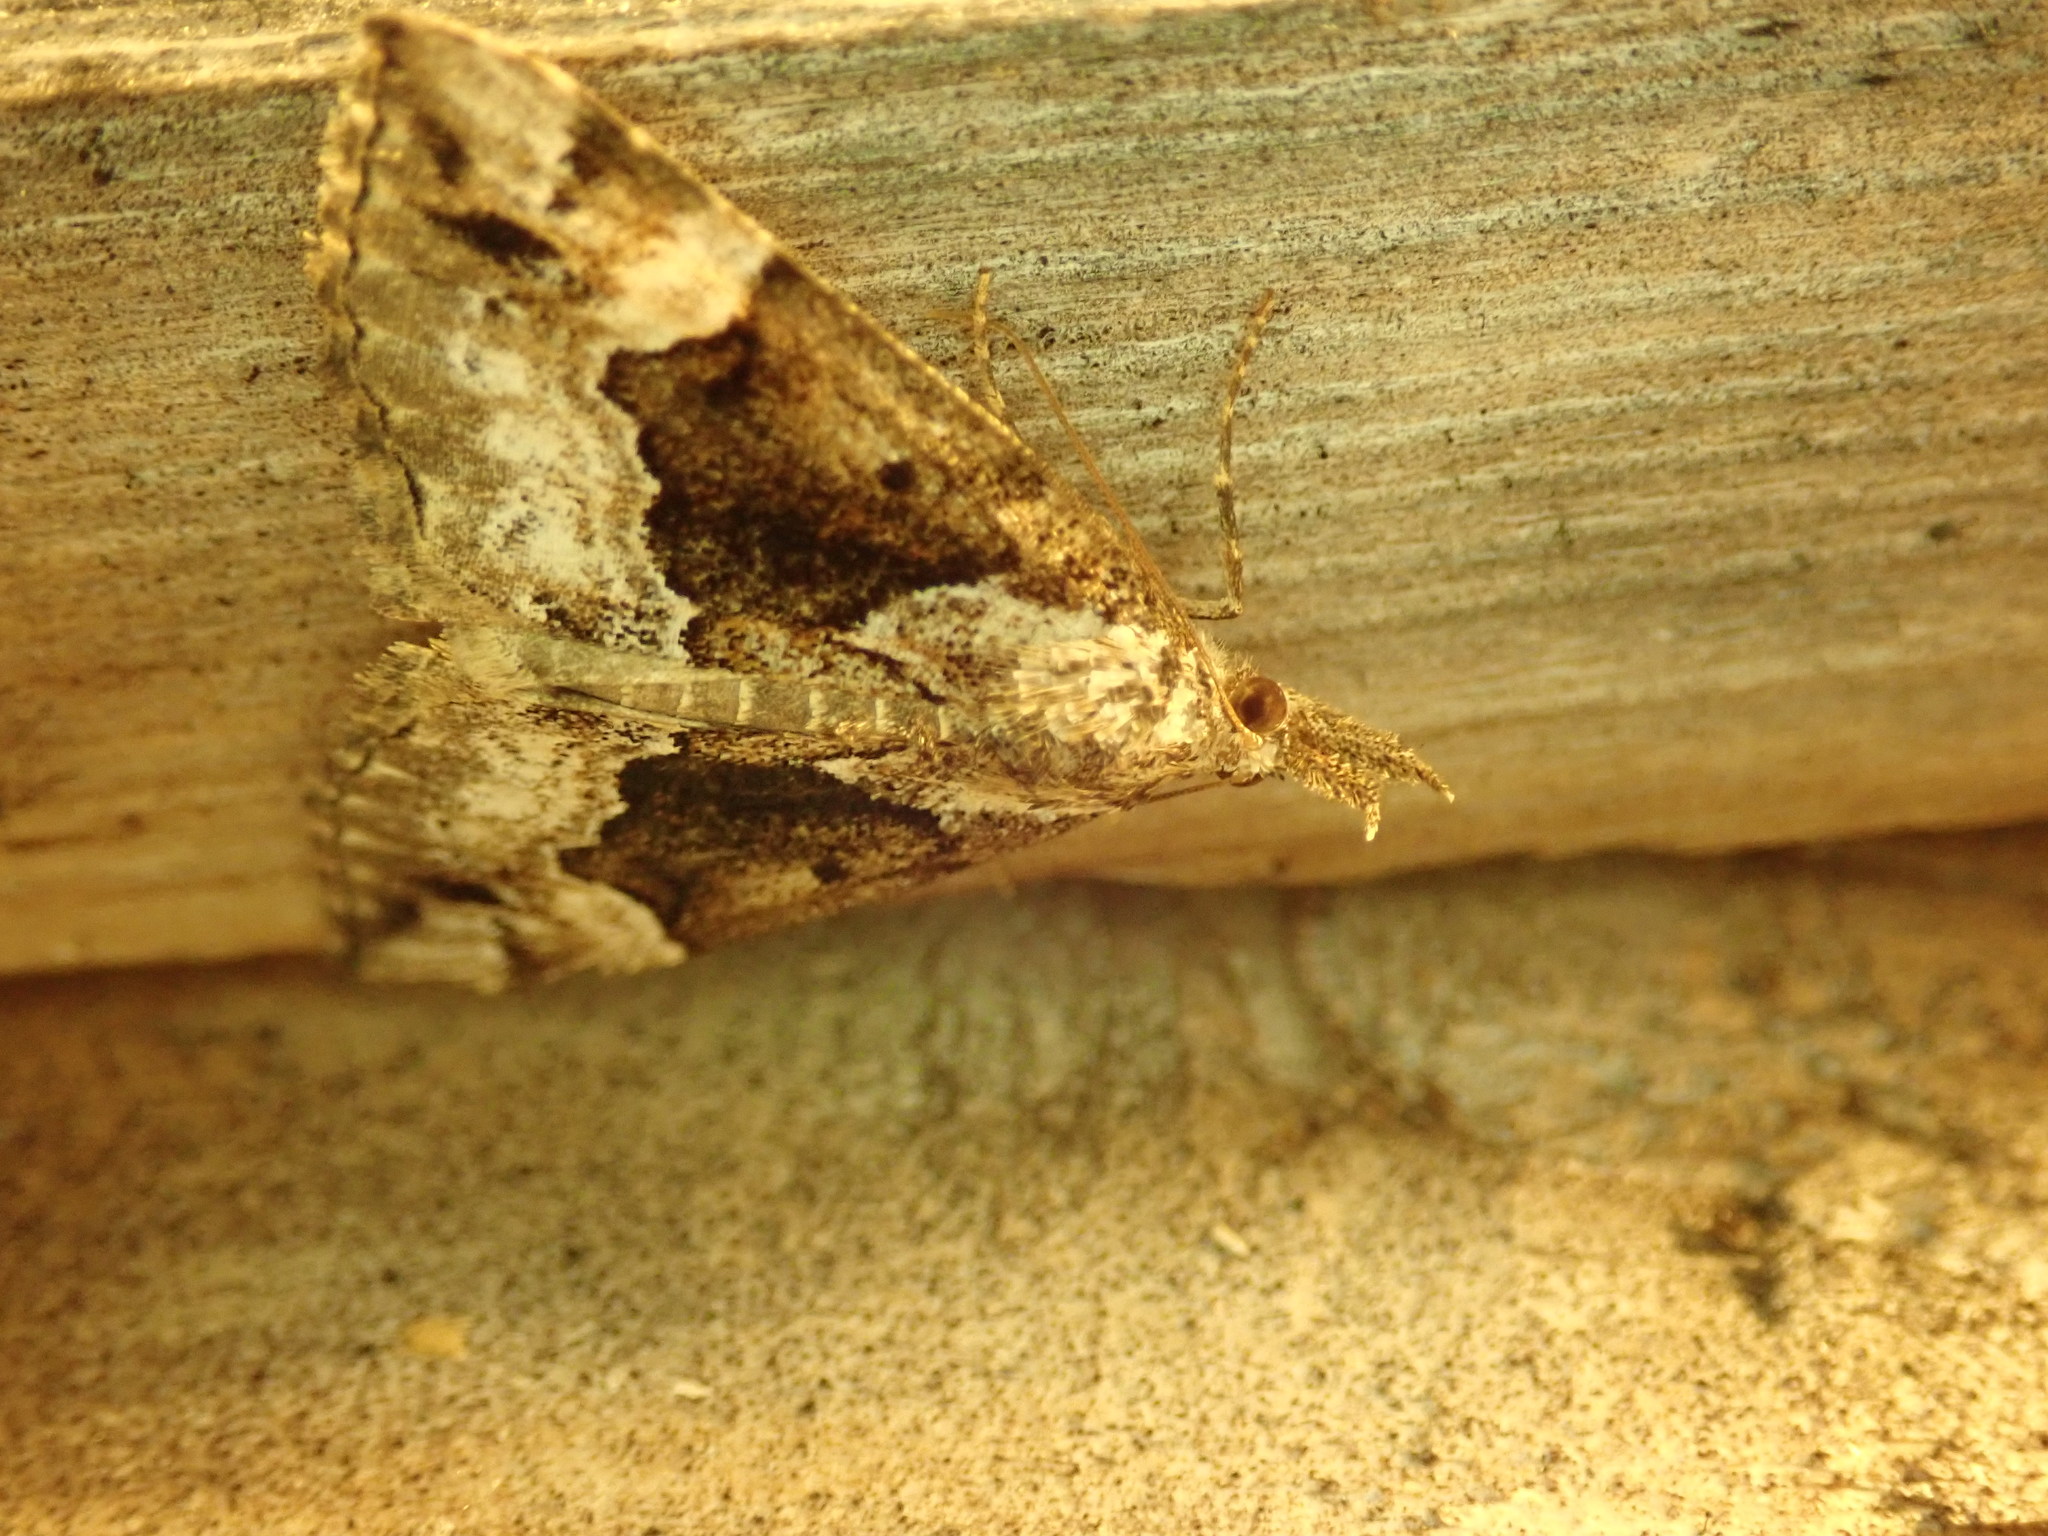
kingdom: Animalia
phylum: Arthropoda
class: Insecta
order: Lepidoptera
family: Erebidae
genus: Hypena
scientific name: Hypena palparia
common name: Mottled bomolocha moth
